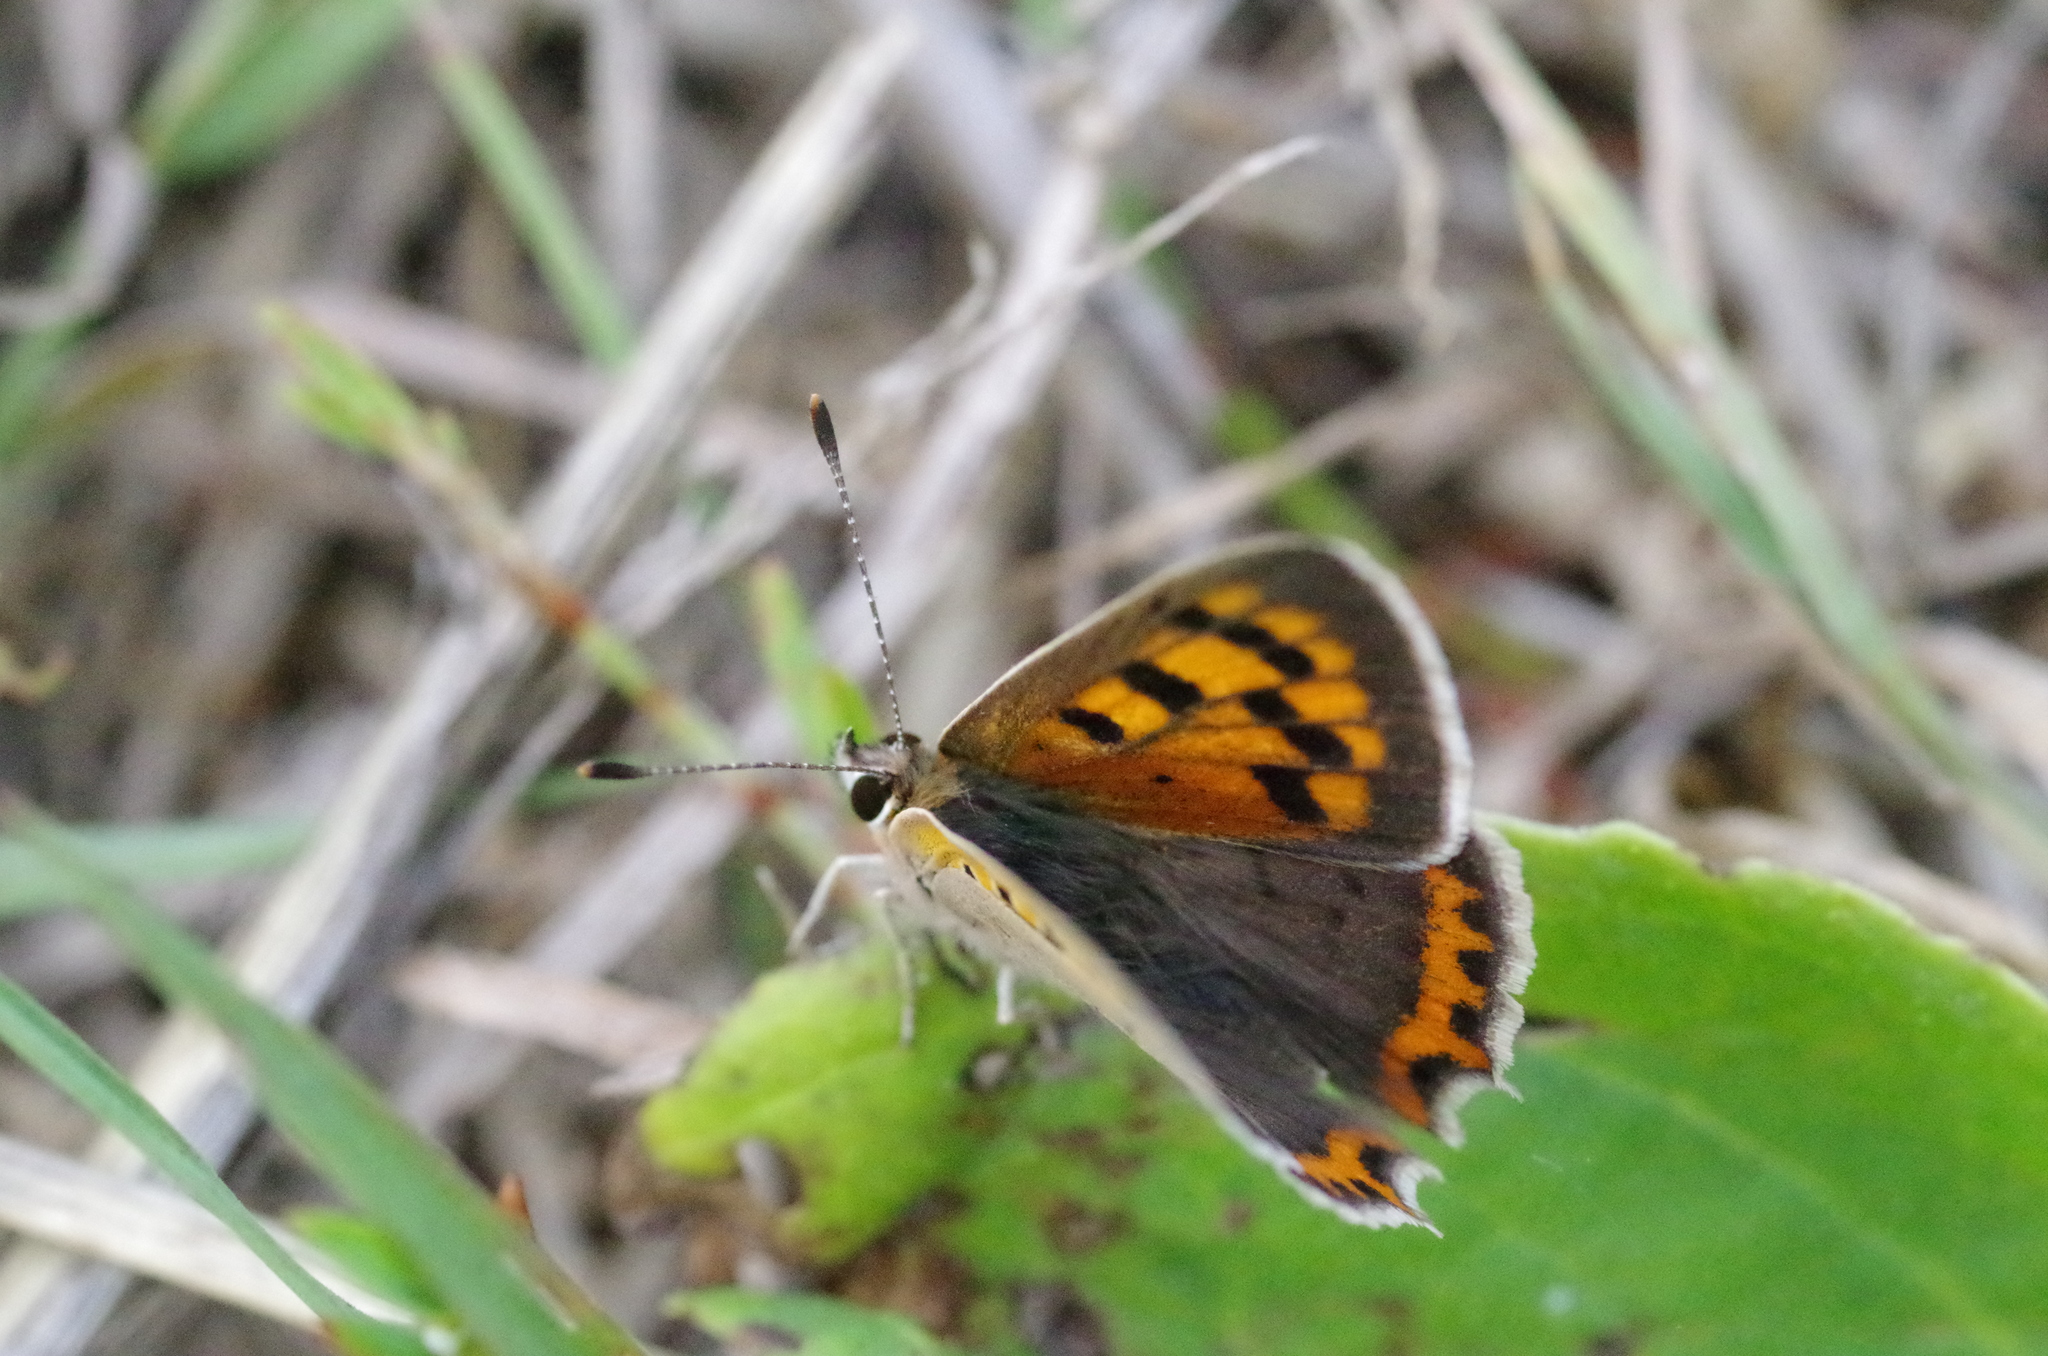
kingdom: Animalia
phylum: Arthropoda
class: Insecta
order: Lepidoptera
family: Lycaenidae
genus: Lycaena
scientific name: Lycaena phlaeas
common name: Small copper
